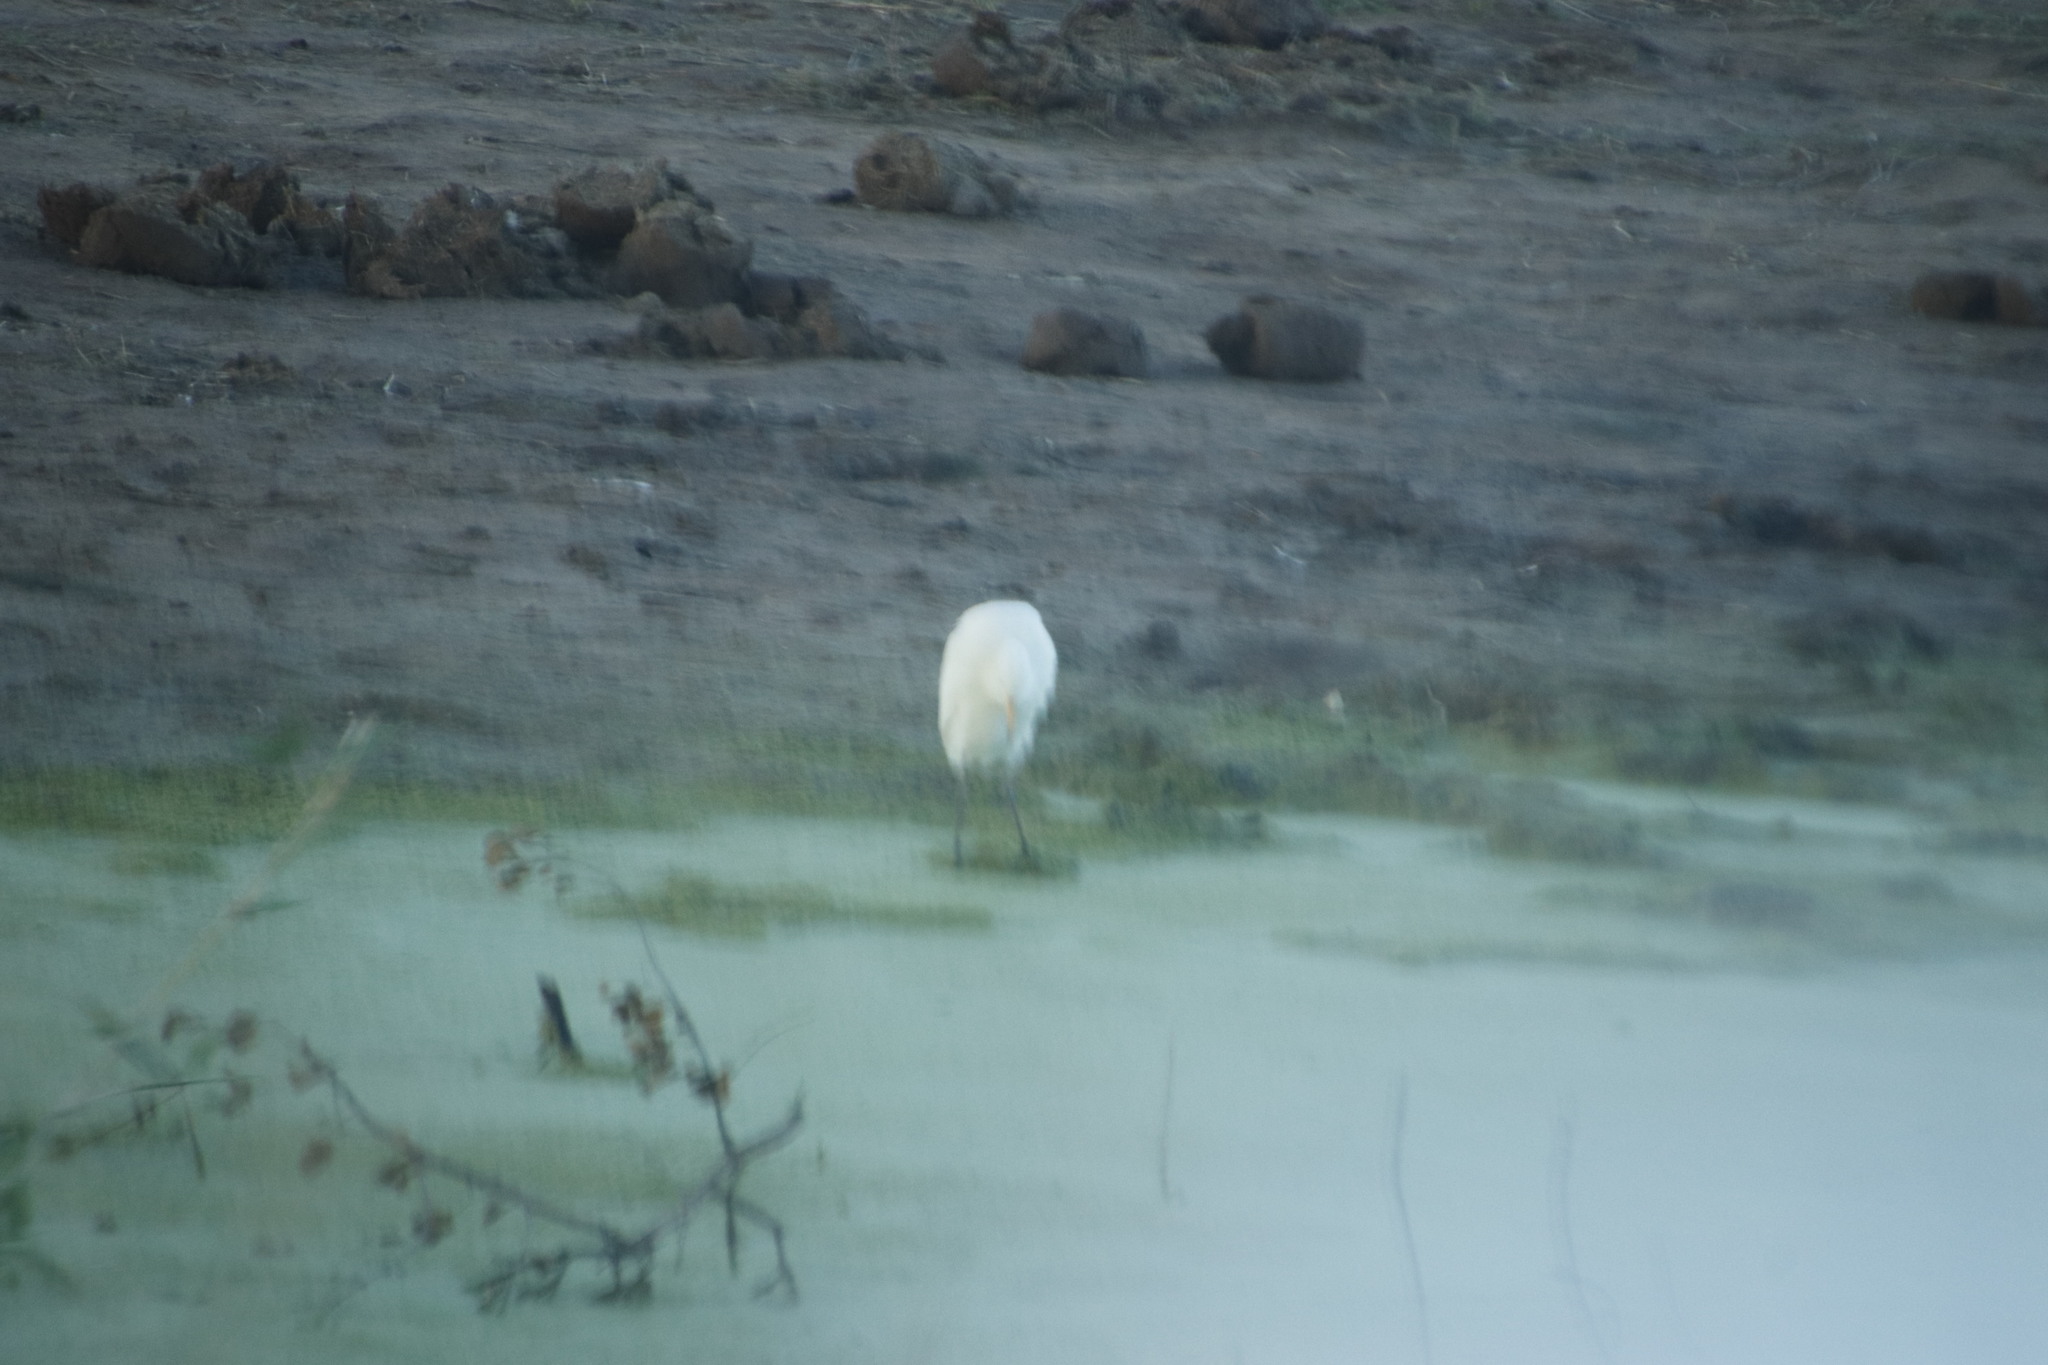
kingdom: Animalia
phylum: Chordata
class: Aves
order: Pelecaniformes
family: Ardeidae
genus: Bubulcus
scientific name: Bubulcus ibis
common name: Cattle egret
